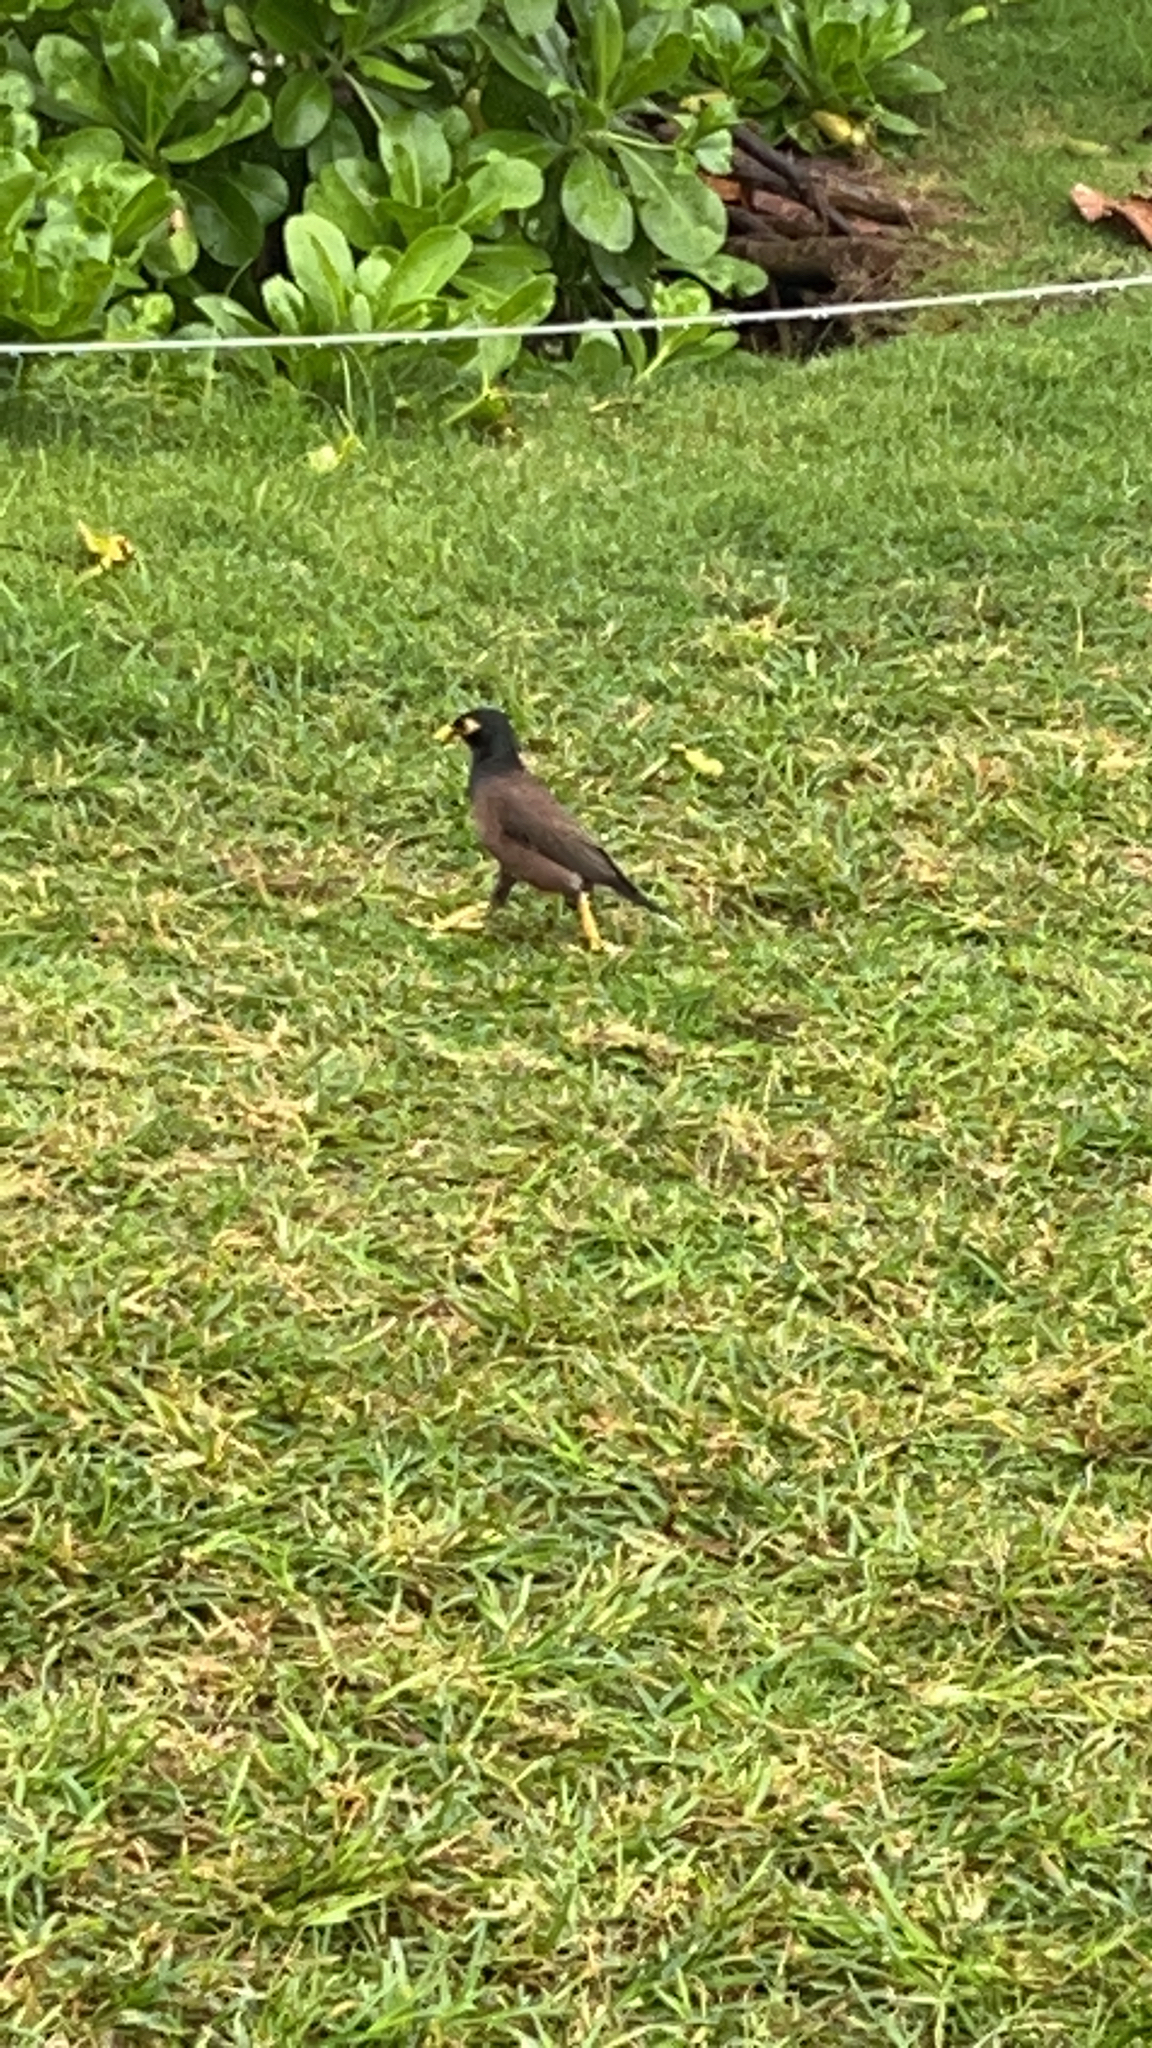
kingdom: Animalia
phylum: Chordata
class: Aves
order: Passeriformes
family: Sturnidae
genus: Acridotheres
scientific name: Acridotheres tristis
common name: Common myna
